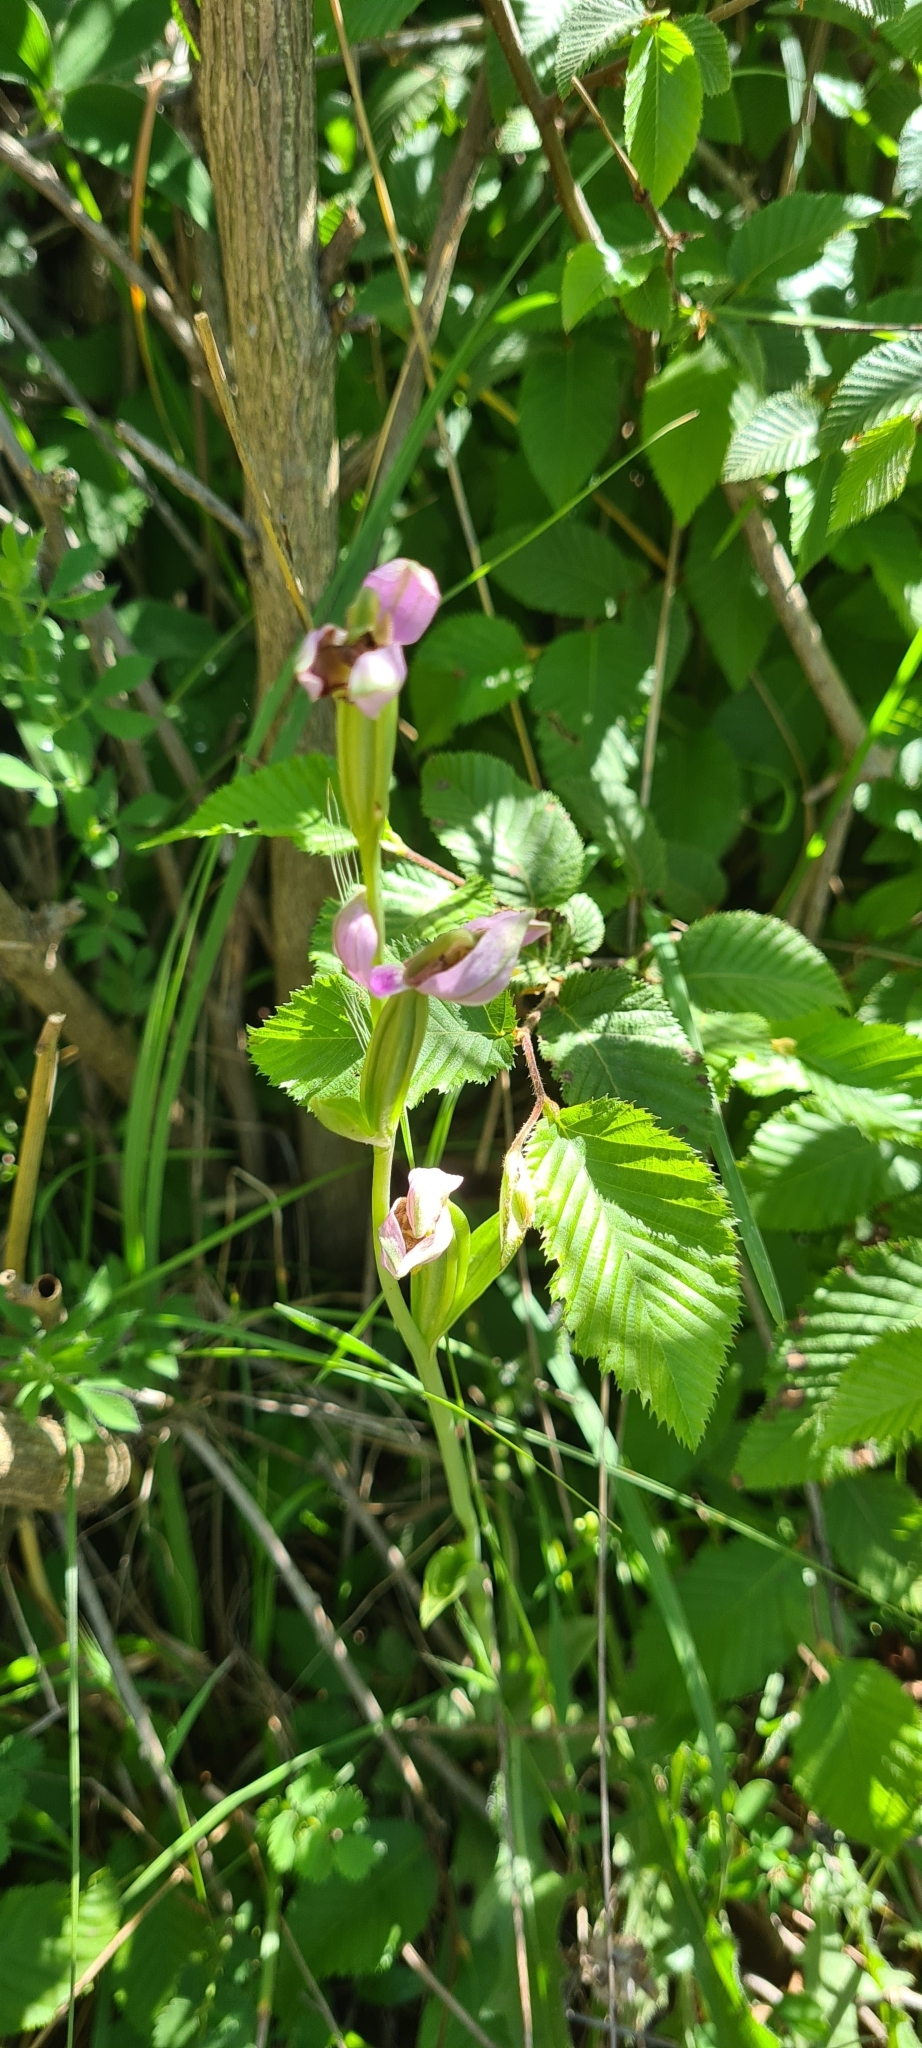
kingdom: Plantae
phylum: Tracheophyta
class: Liliopsida
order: Asparagales
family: Orchidaceae
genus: Ophrys
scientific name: Ophrys apifera
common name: Bee orchid
